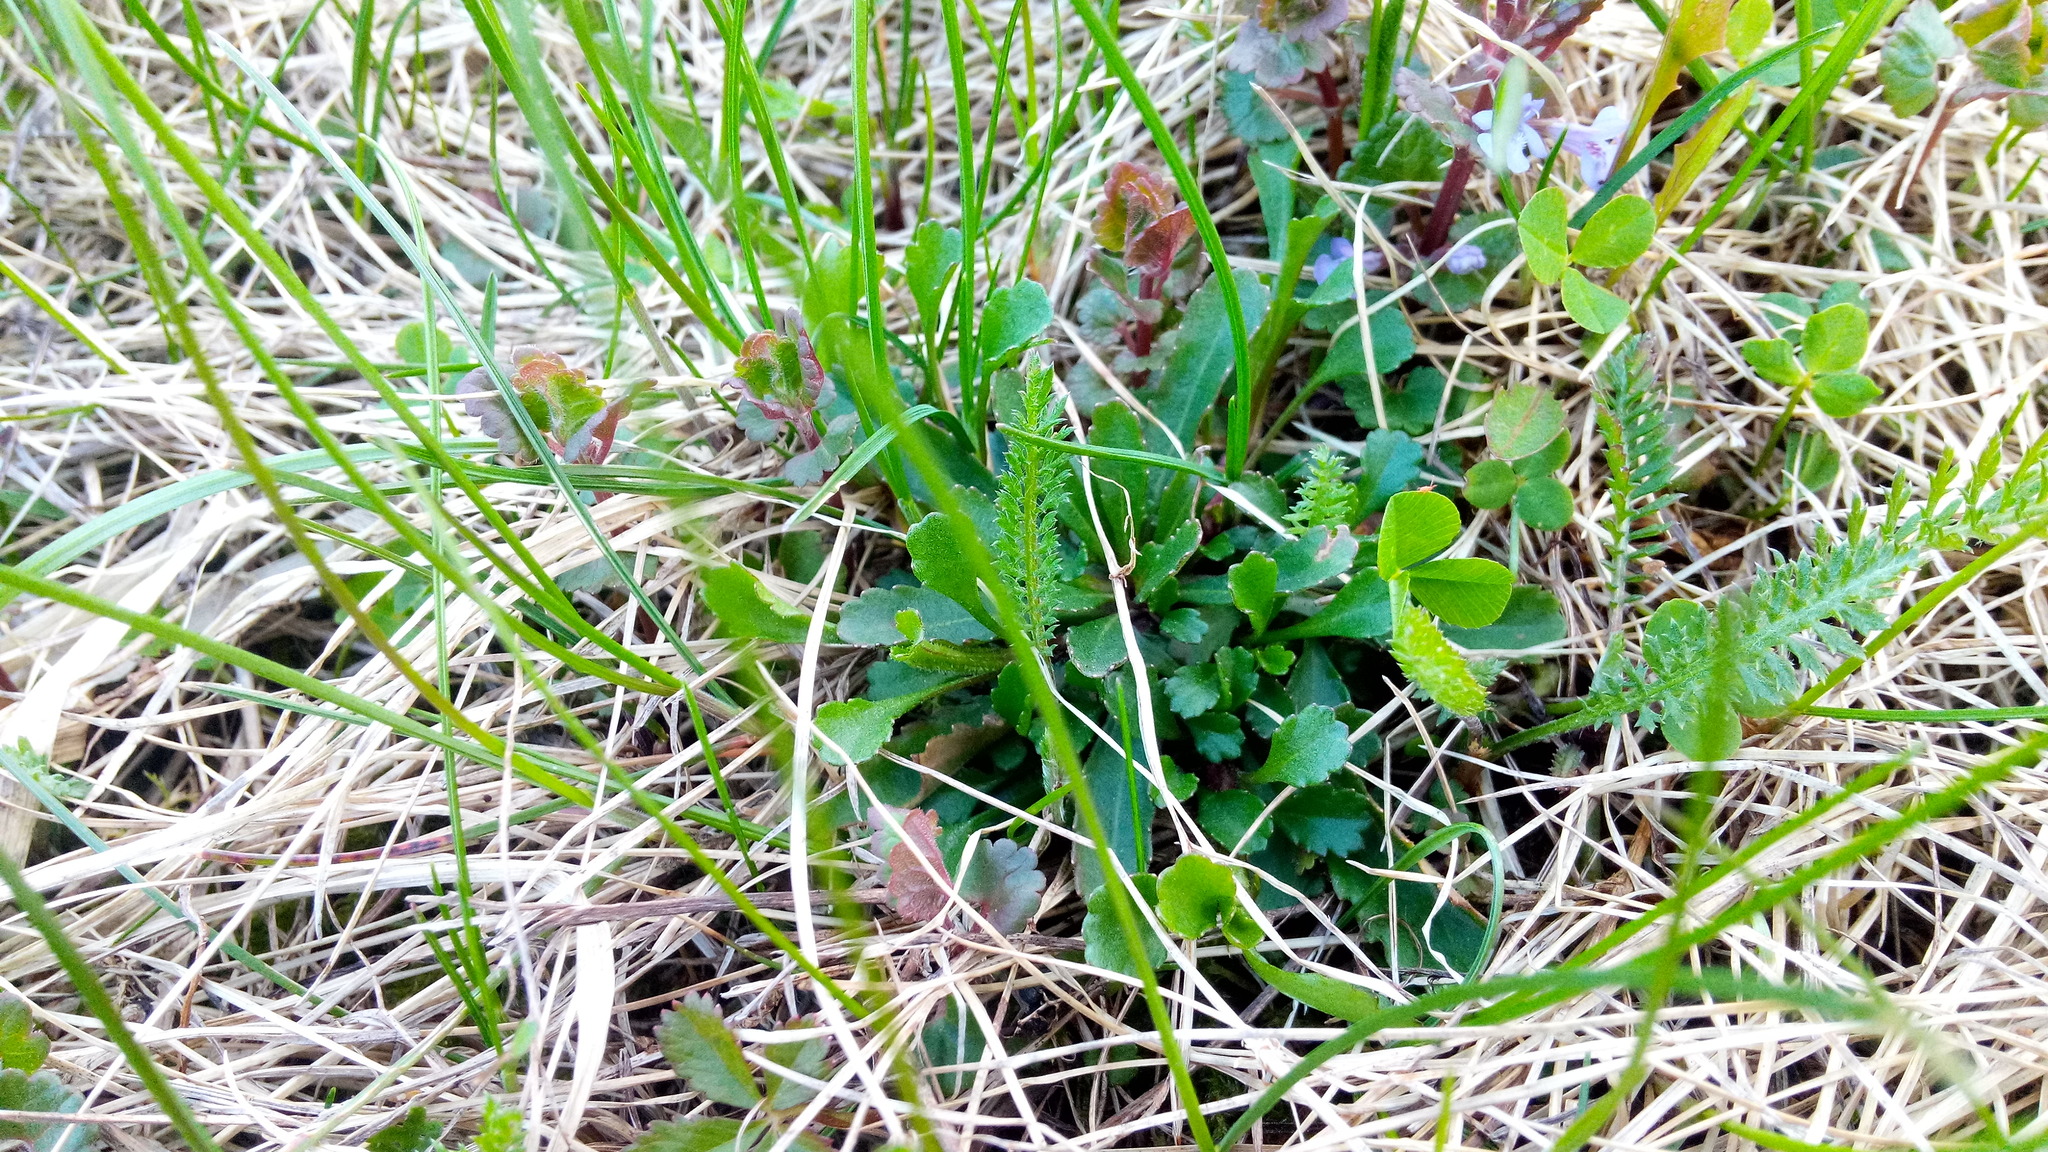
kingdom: Plantae
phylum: Tracheophyta
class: Magnoliopsida
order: Asterales
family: Asteraceae
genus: Leucanthemum
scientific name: Leucanthemum vulgare
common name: Oxeye daisy
